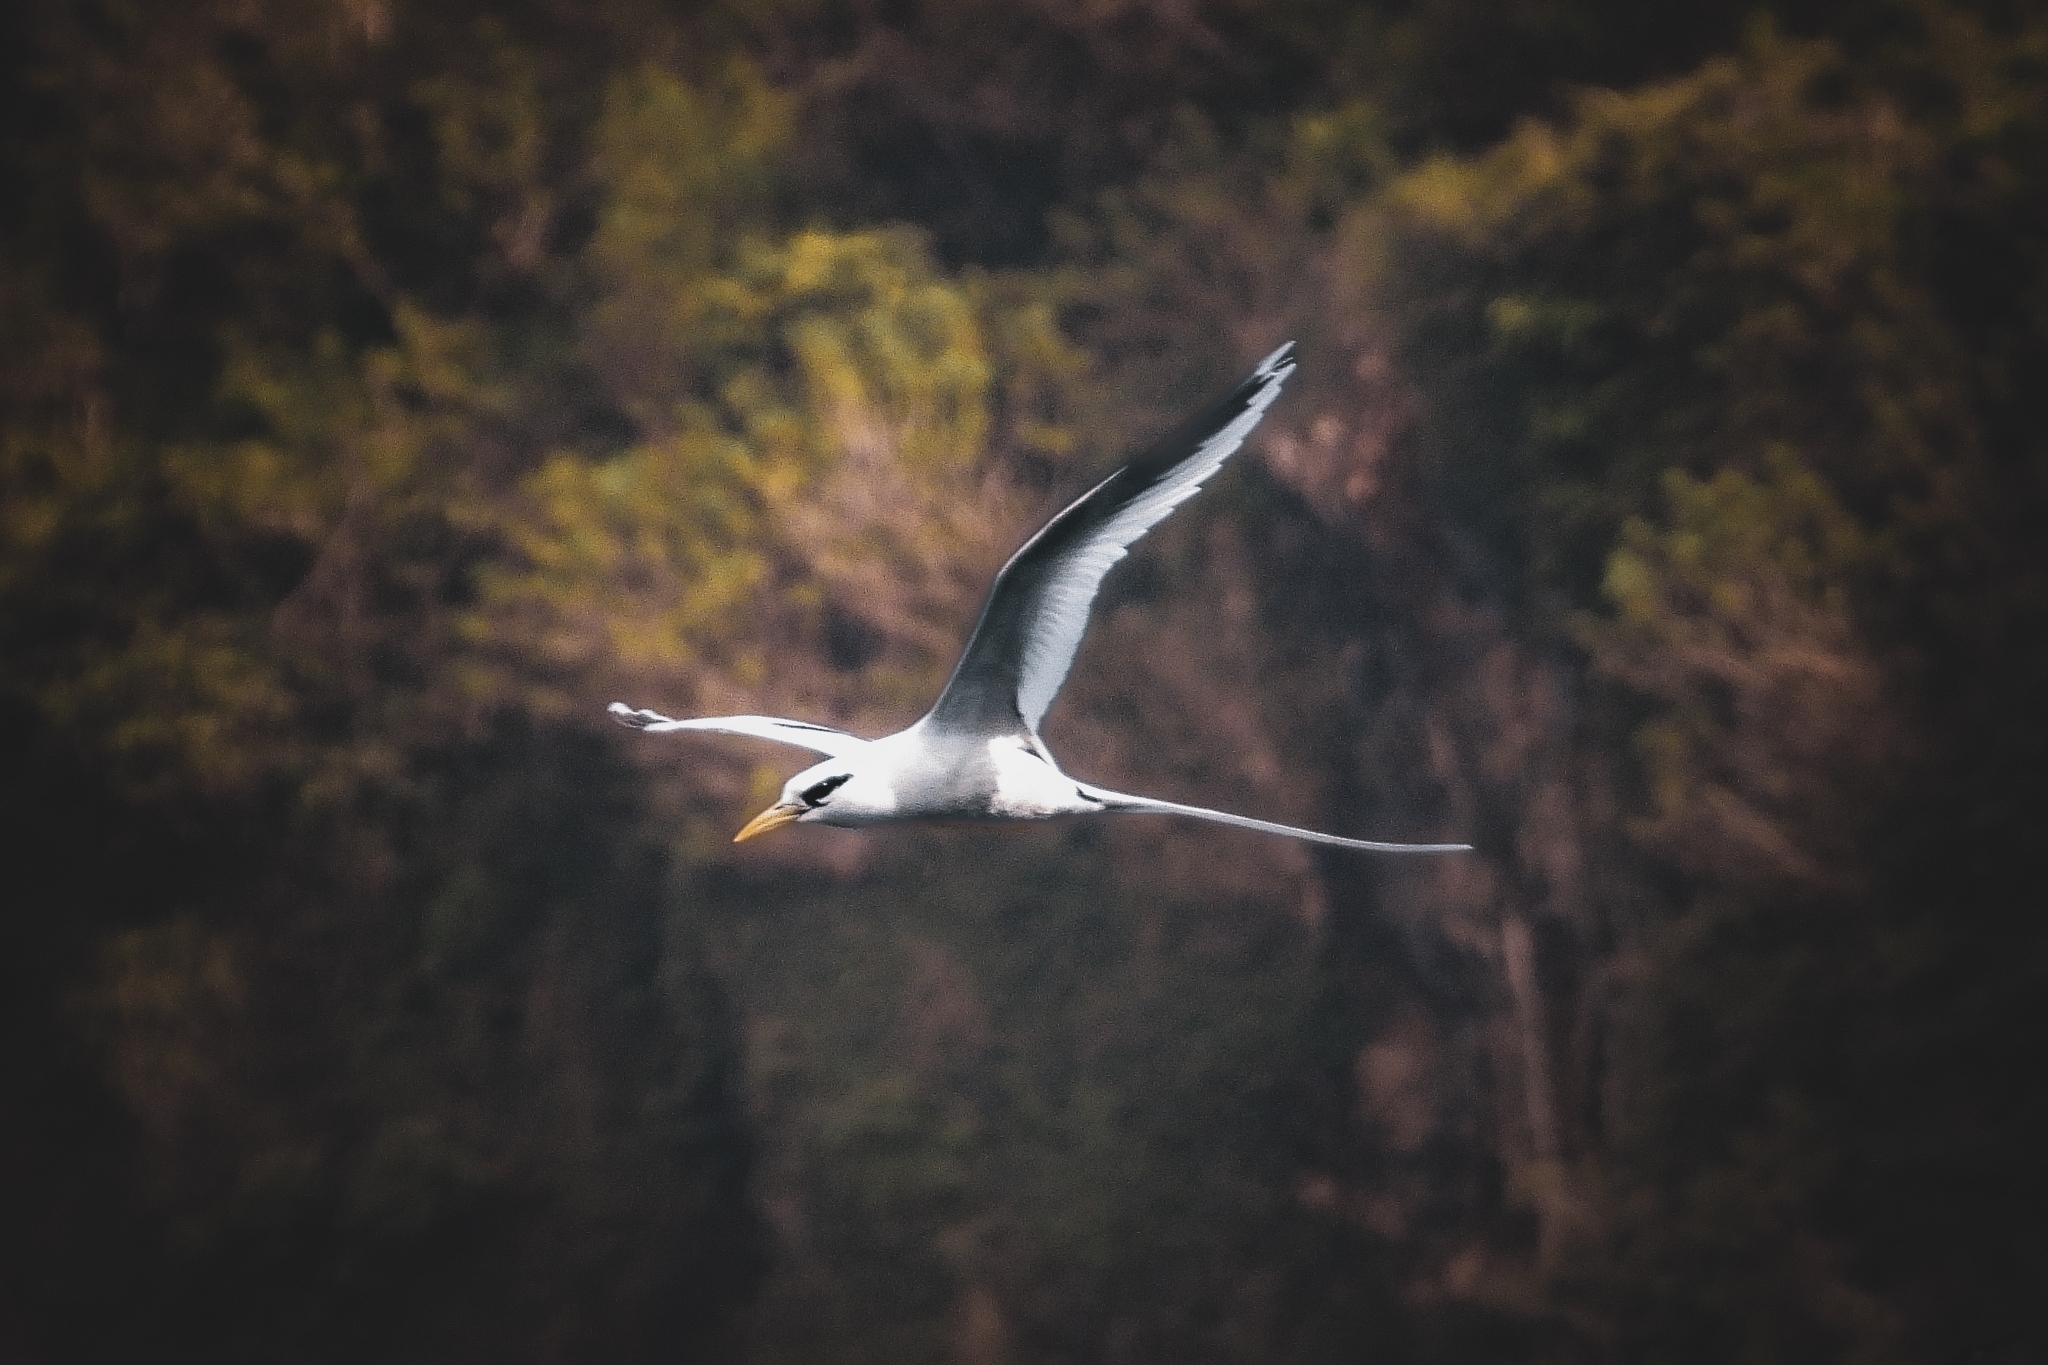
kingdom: Animalia
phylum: Chordata
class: Aves
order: Phaethontiformes
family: Phaethontidae
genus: Phaethon
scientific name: Phaethon lepturus
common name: White-tailed tropicbird
